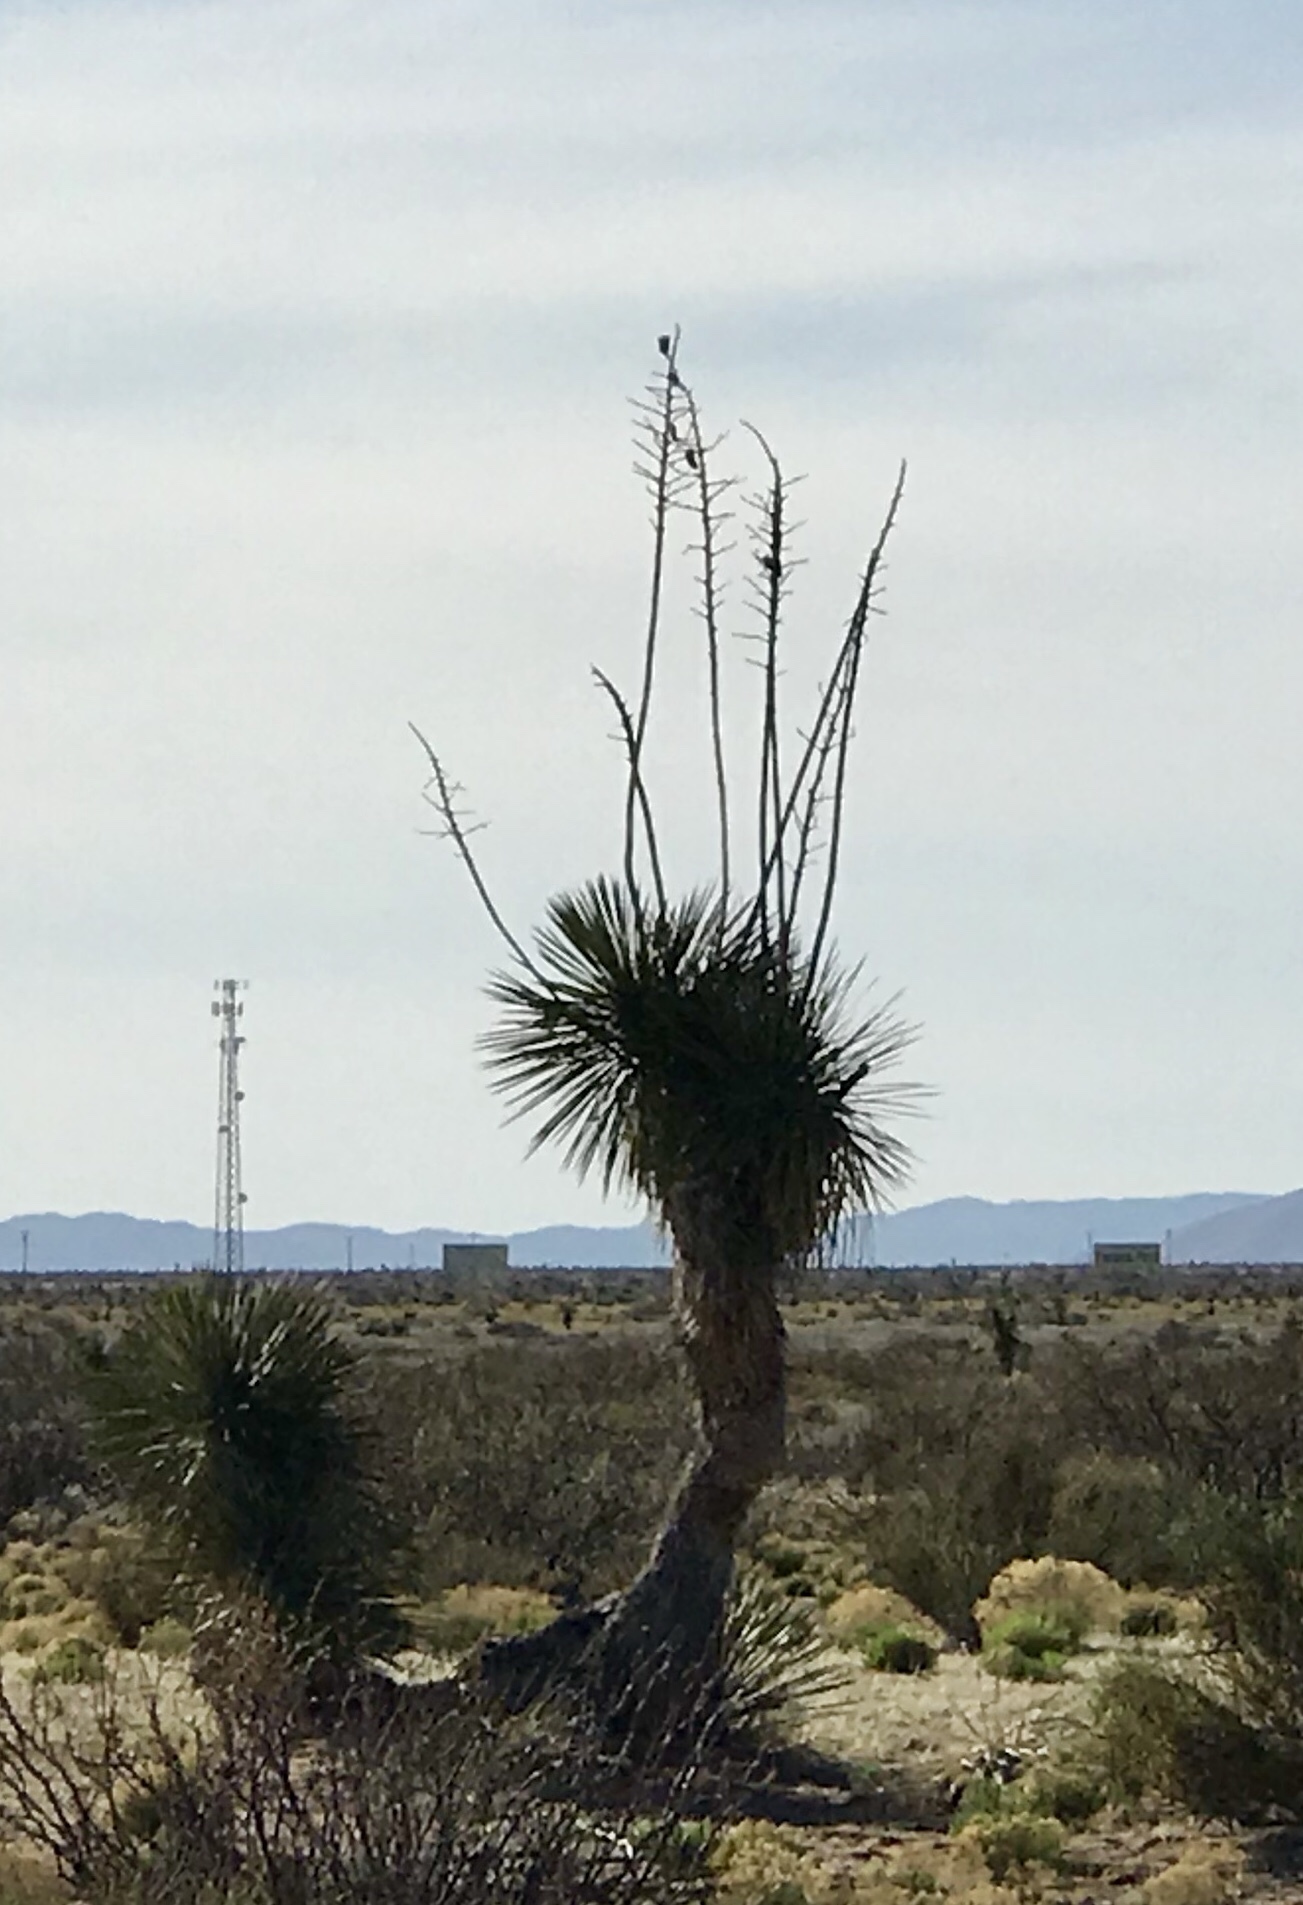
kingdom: Plantae
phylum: Tracheophyta
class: Liliopsida
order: Asparagales
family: Asparagaceae
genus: Yucca
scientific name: Yucca elata
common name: Palmella
